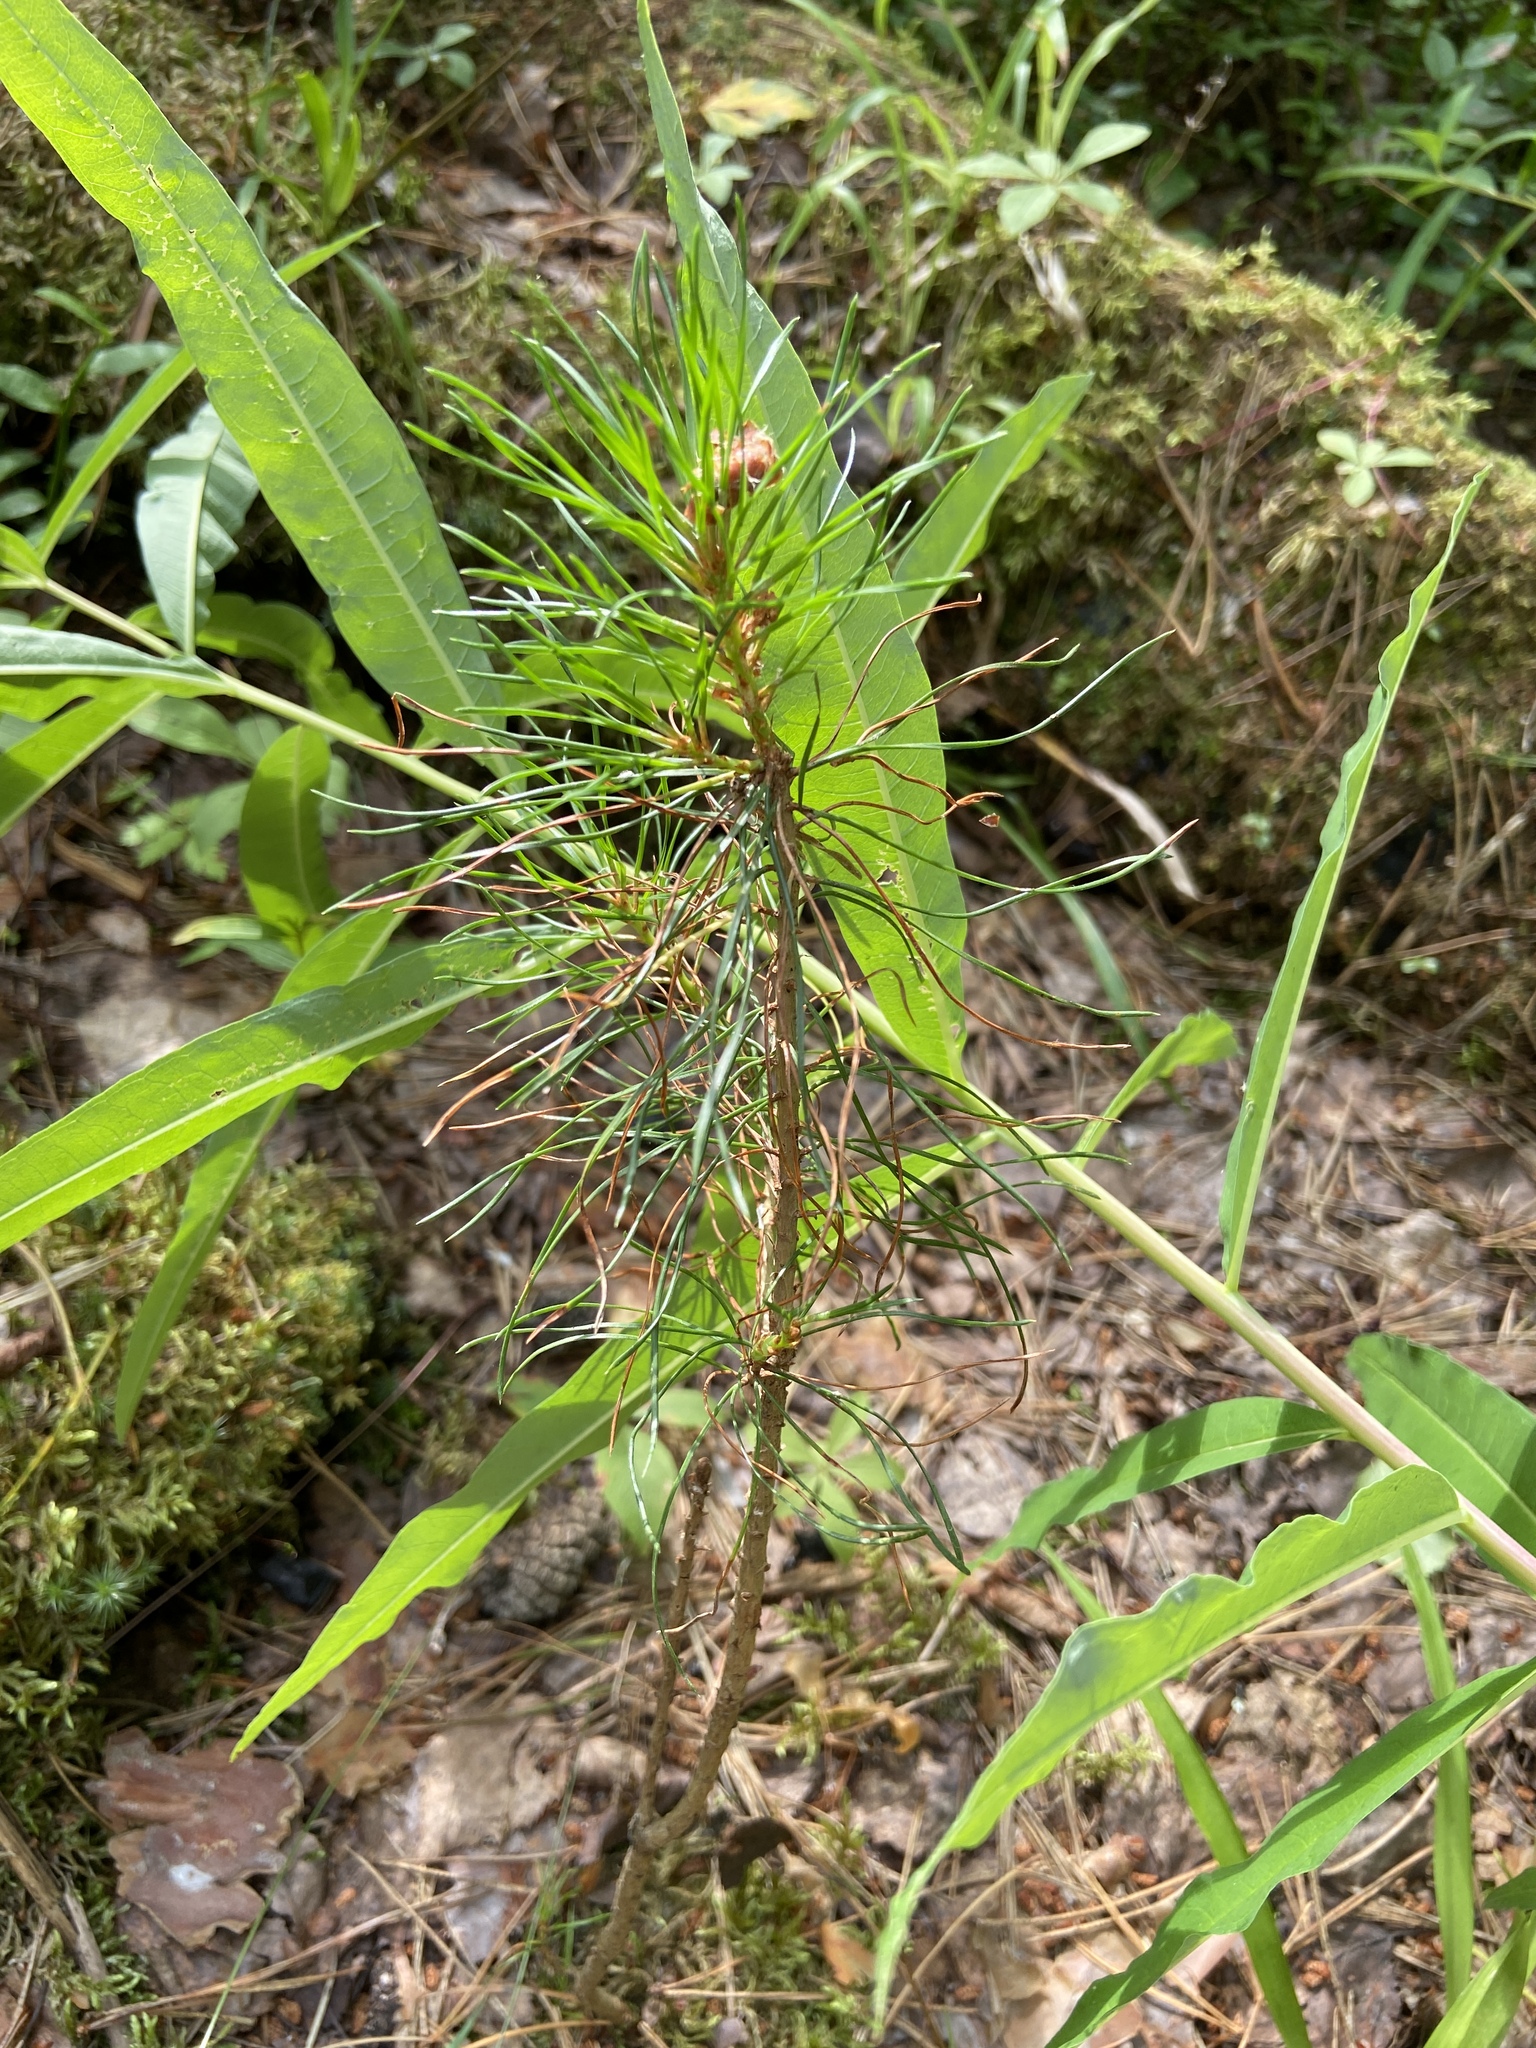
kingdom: Plantae
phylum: Tracheophyta
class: Pinopsida
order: Pinales
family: Pinaceae
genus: Pinus
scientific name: Pinus sylvestris
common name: Scots pine
